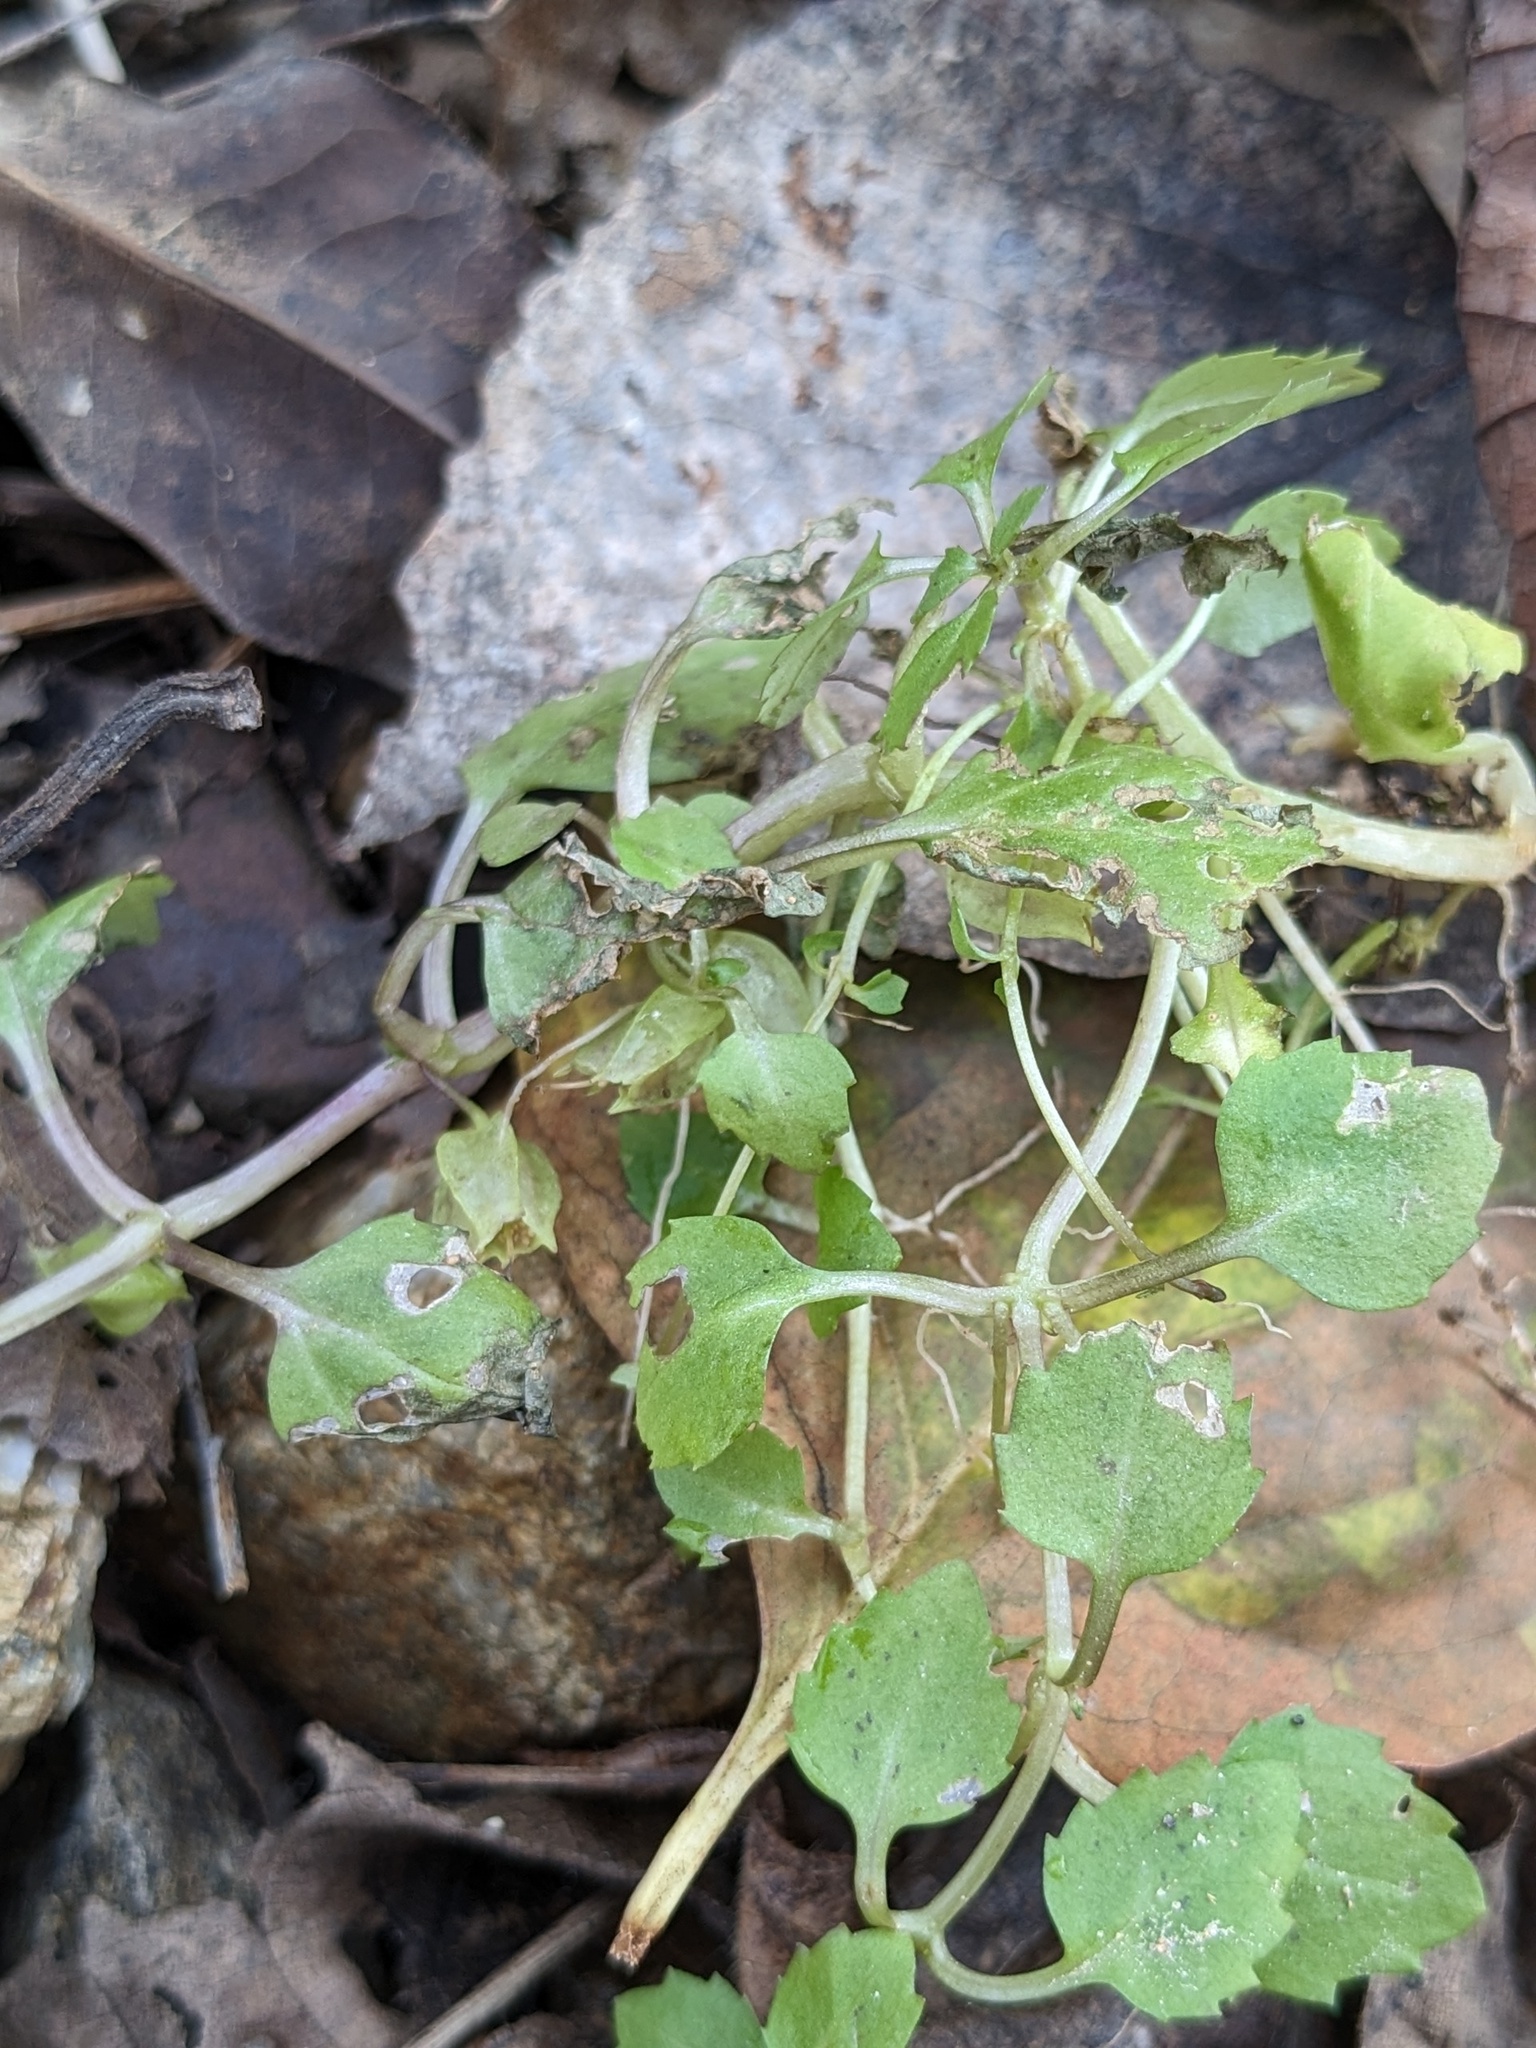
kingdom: Plantae
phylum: Tracheophyta
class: Magnoliopsida
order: Lamiales
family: Phrymaceae
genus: Erythranthe
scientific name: Erythranthe tenella
